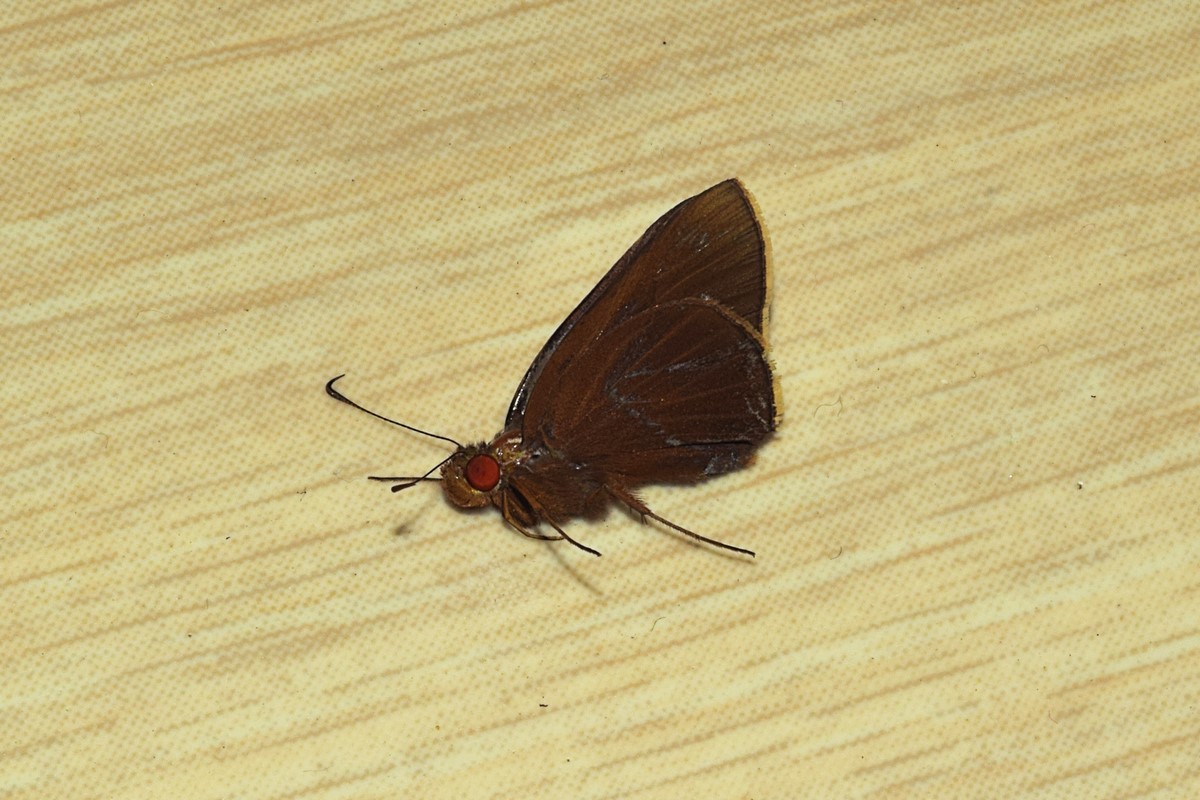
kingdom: Animalia
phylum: Arthropoda
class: Insecta
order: Lepidoptera
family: Hesperiidae
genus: Matapa
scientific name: Matapa druna
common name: Grey-brand redeye
